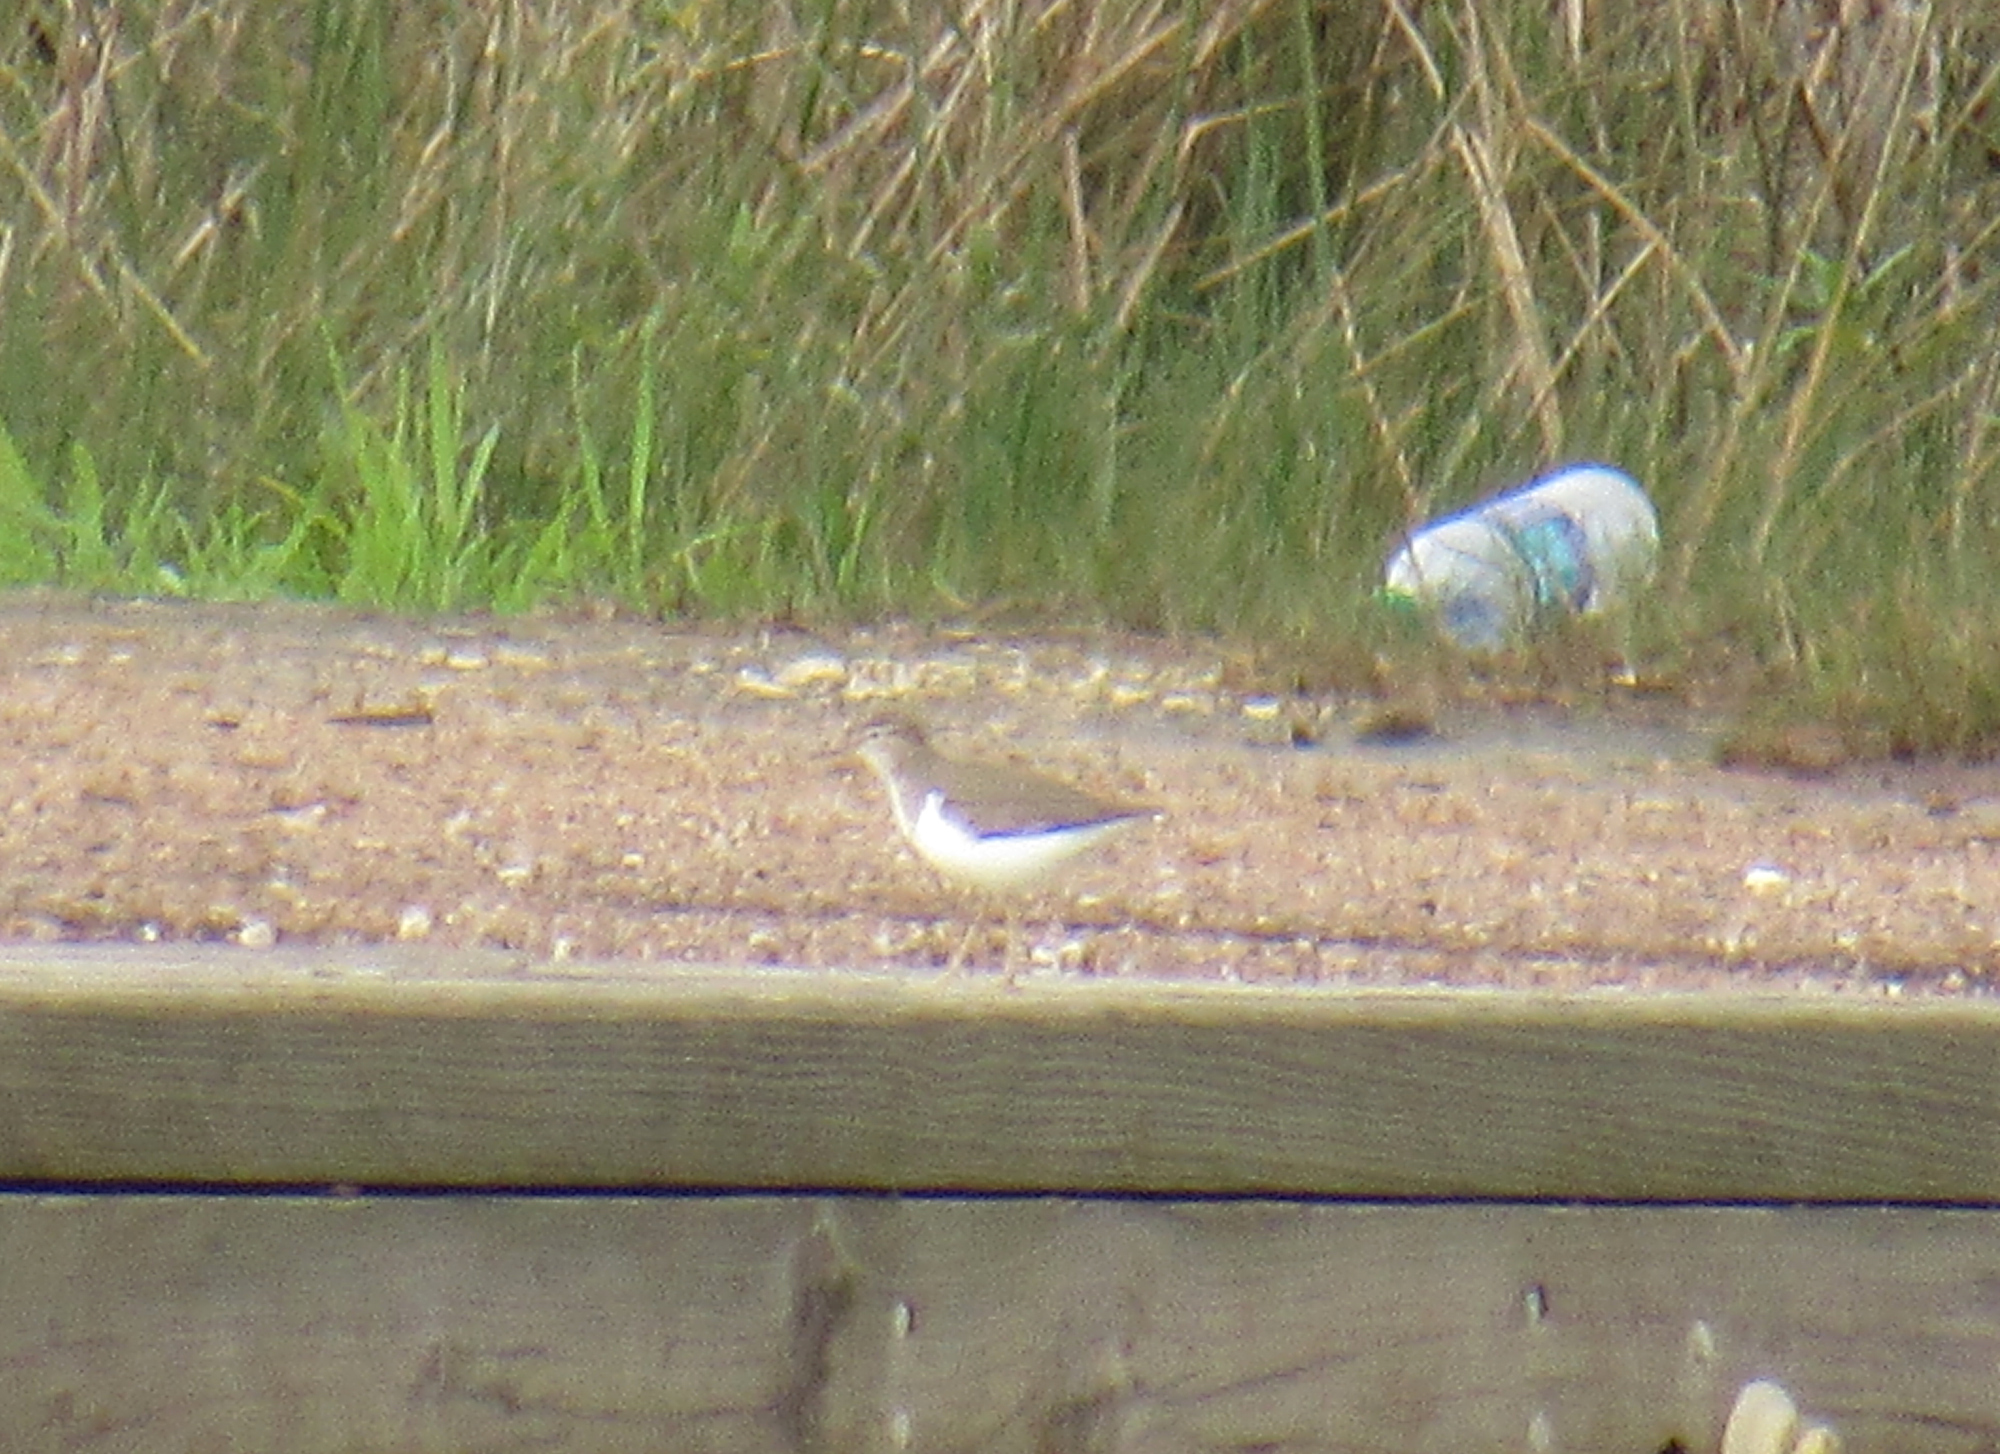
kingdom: Animalia
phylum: Chordata
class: Aves
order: Charadriiformes
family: Scolopacidae
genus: Actitis
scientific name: Actitis macularius
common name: Spotted sandpiper
